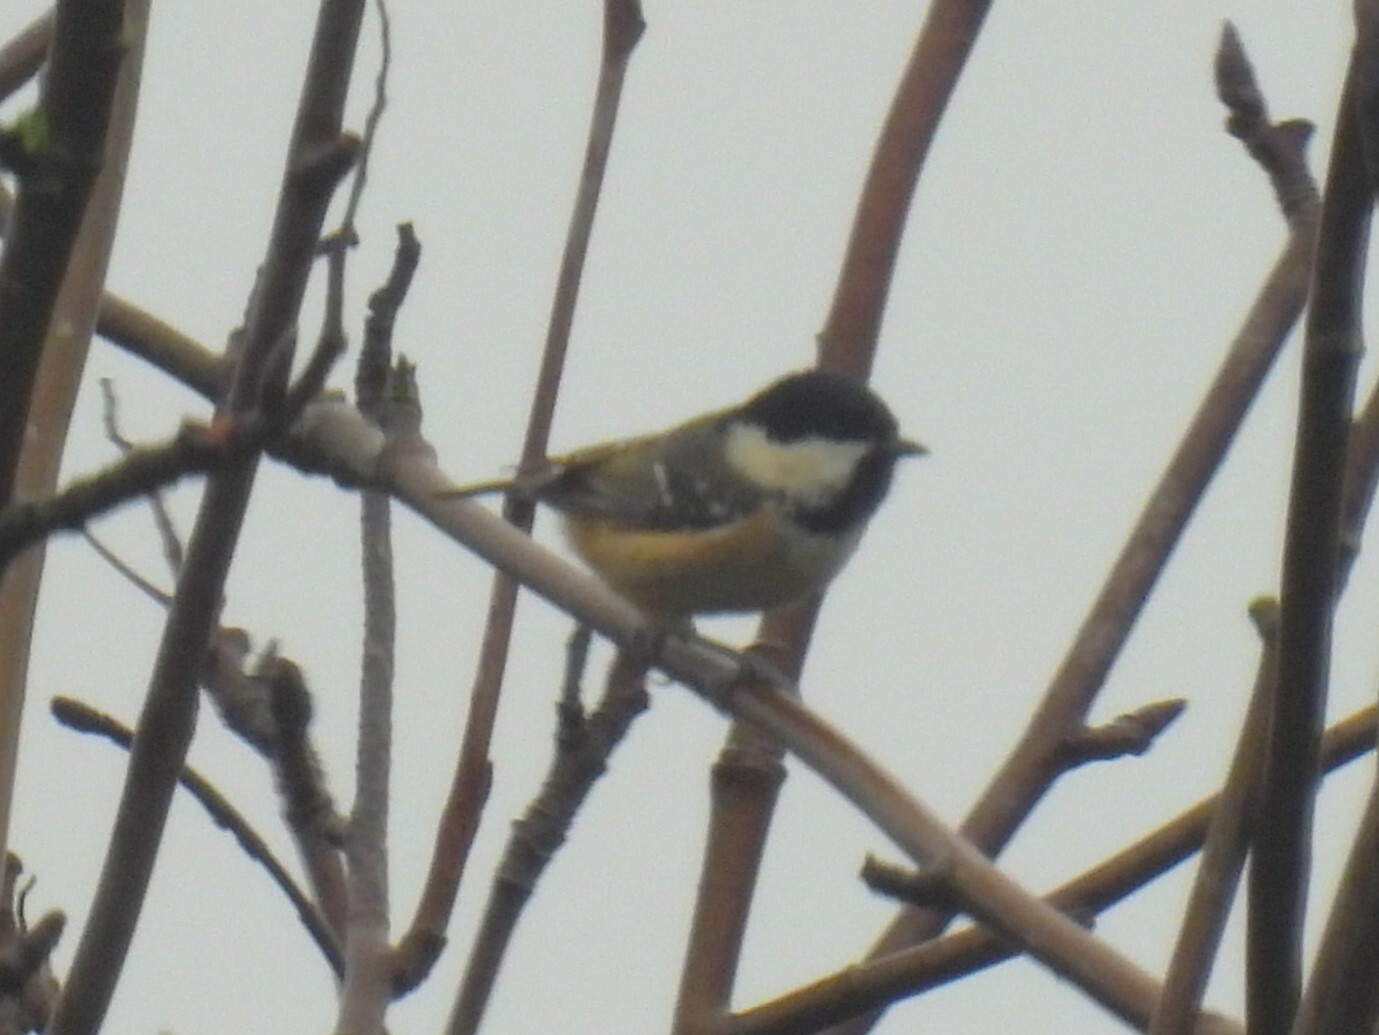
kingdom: Animalia
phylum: Chordata
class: Aves
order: Passeriformes
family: Paridae
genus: Periparus
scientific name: Periparus ater
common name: Coal tit
